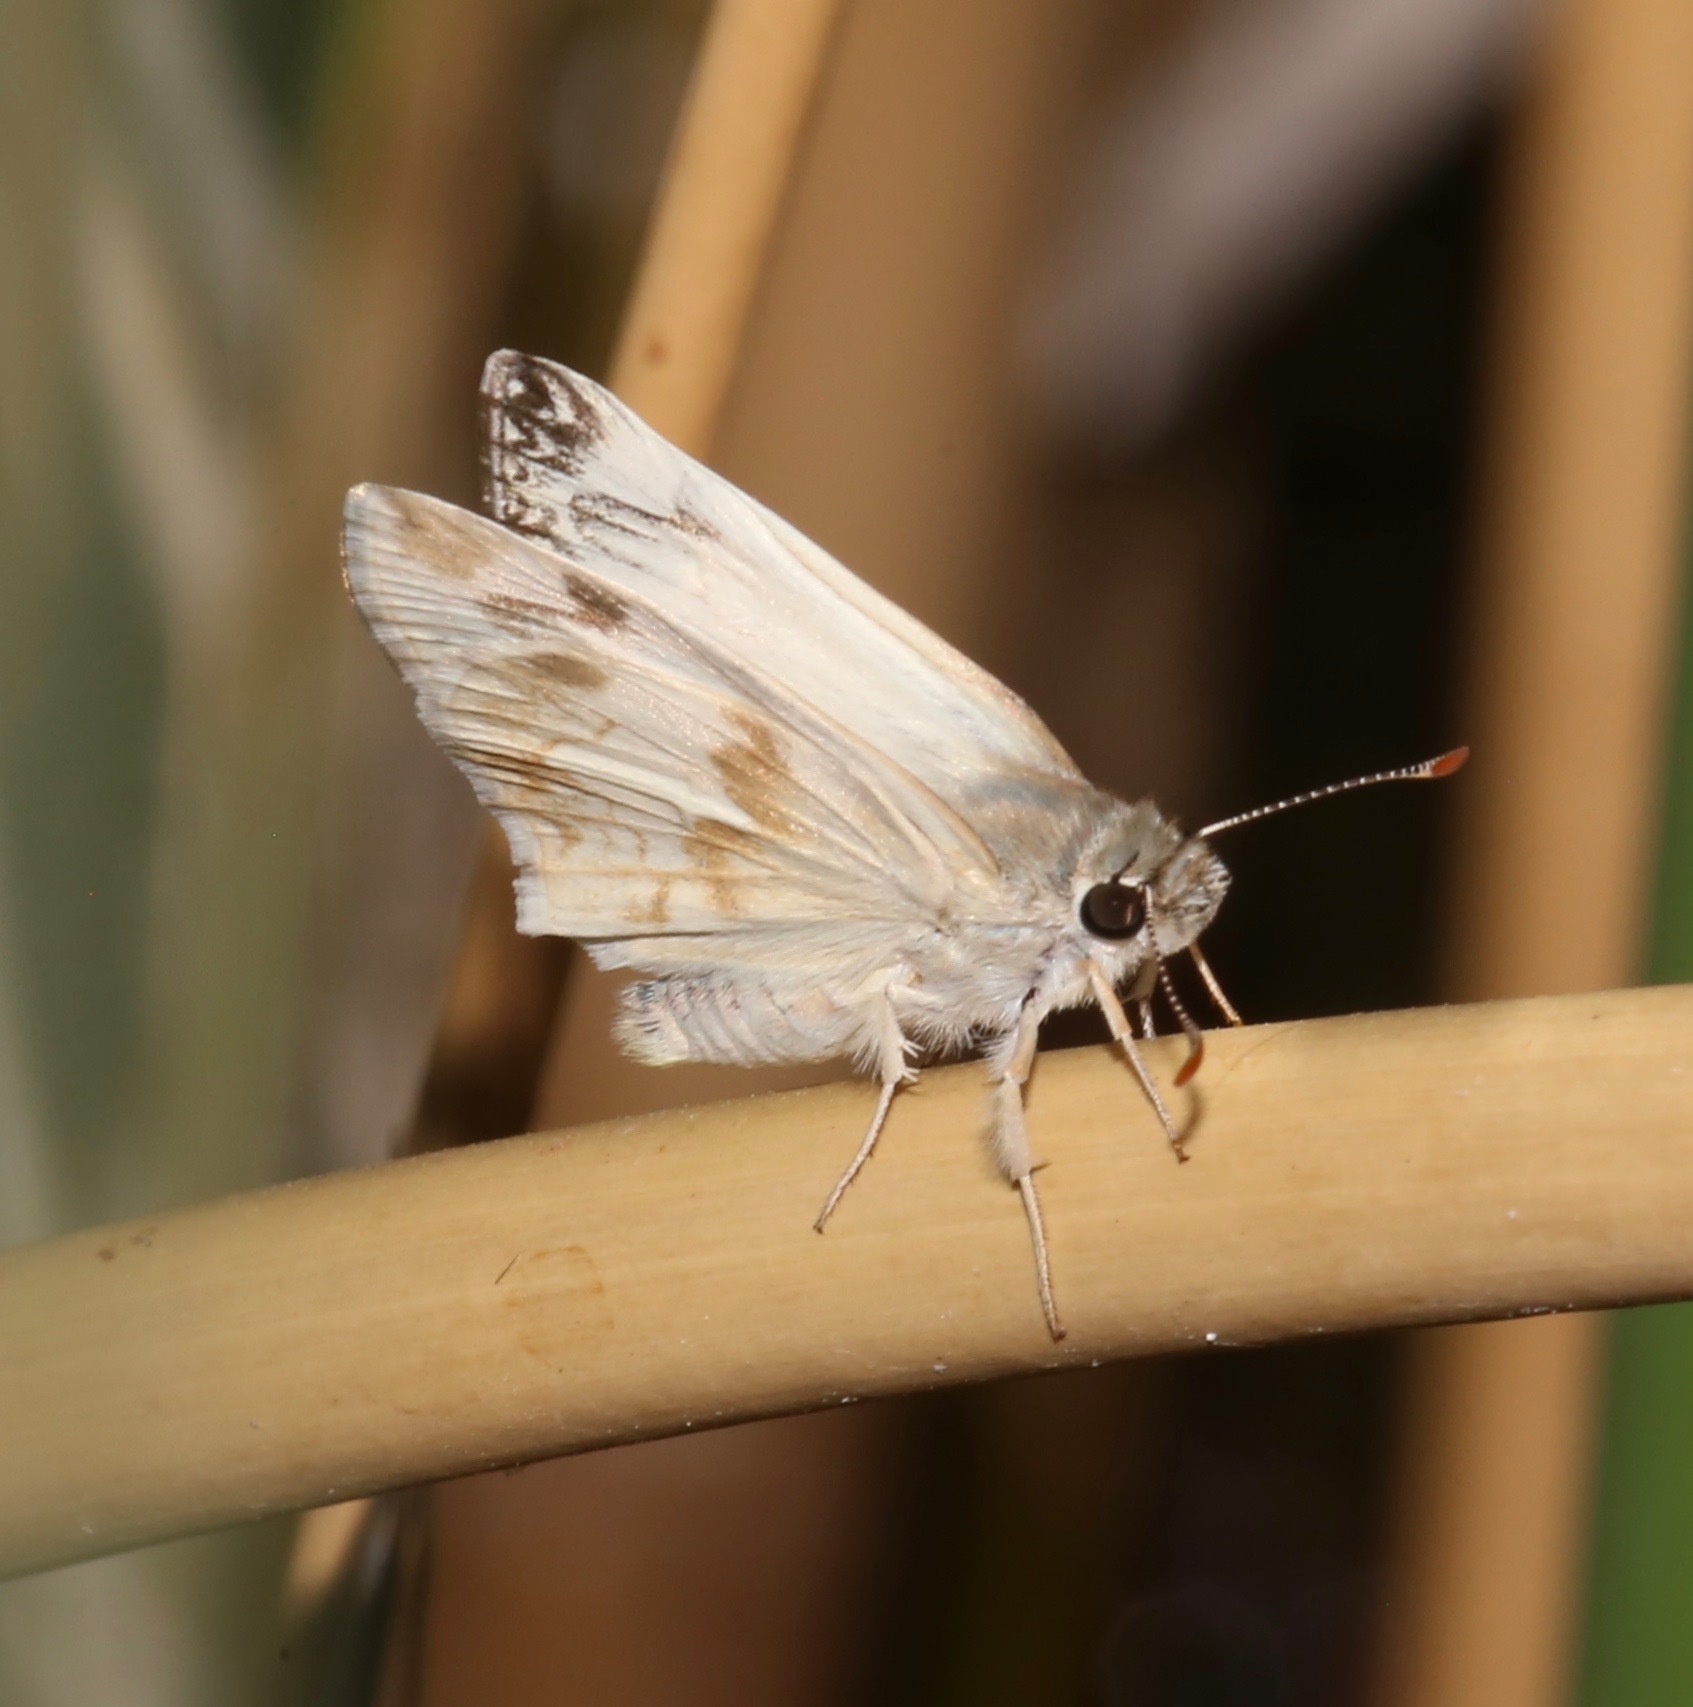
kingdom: Animalia
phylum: Arthropoda
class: Insecta
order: Lepidoptera
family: Hesperiidae
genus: Heliopetes
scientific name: Heliopetes ericetorum
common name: Northern white-skipper
